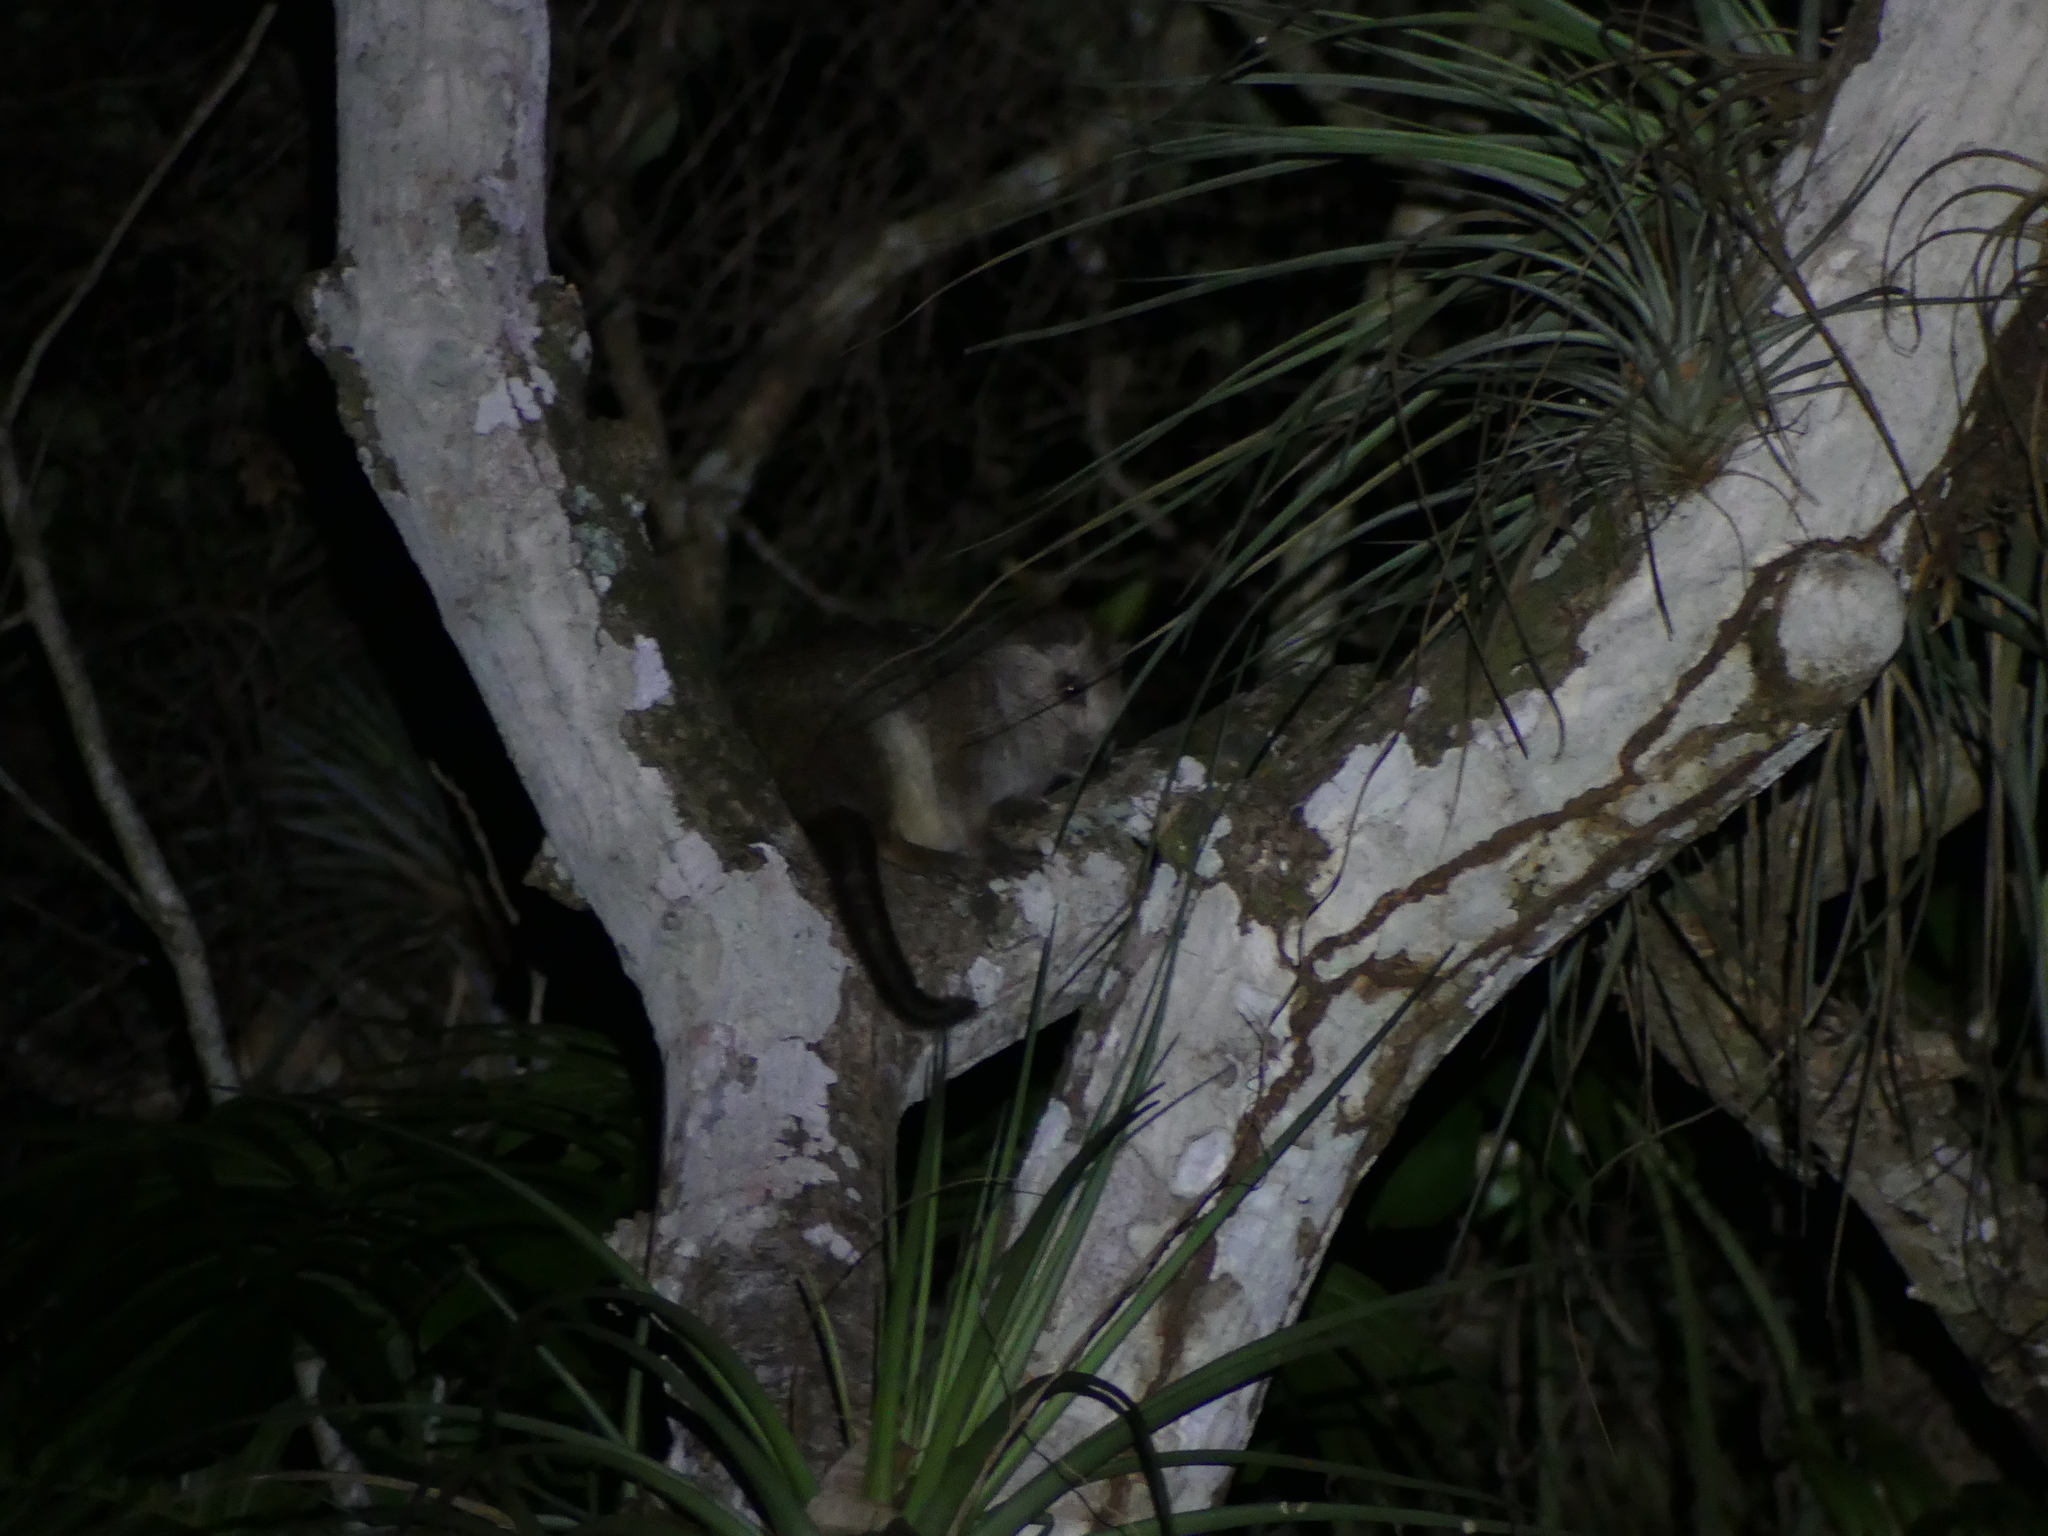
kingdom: Animalia
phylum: Chordata
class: Mammalia
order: Rodentia
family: Capromyidae
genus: Mysateles
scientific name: Mysateles prehensilis
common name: Prehensile-tailed hutia
